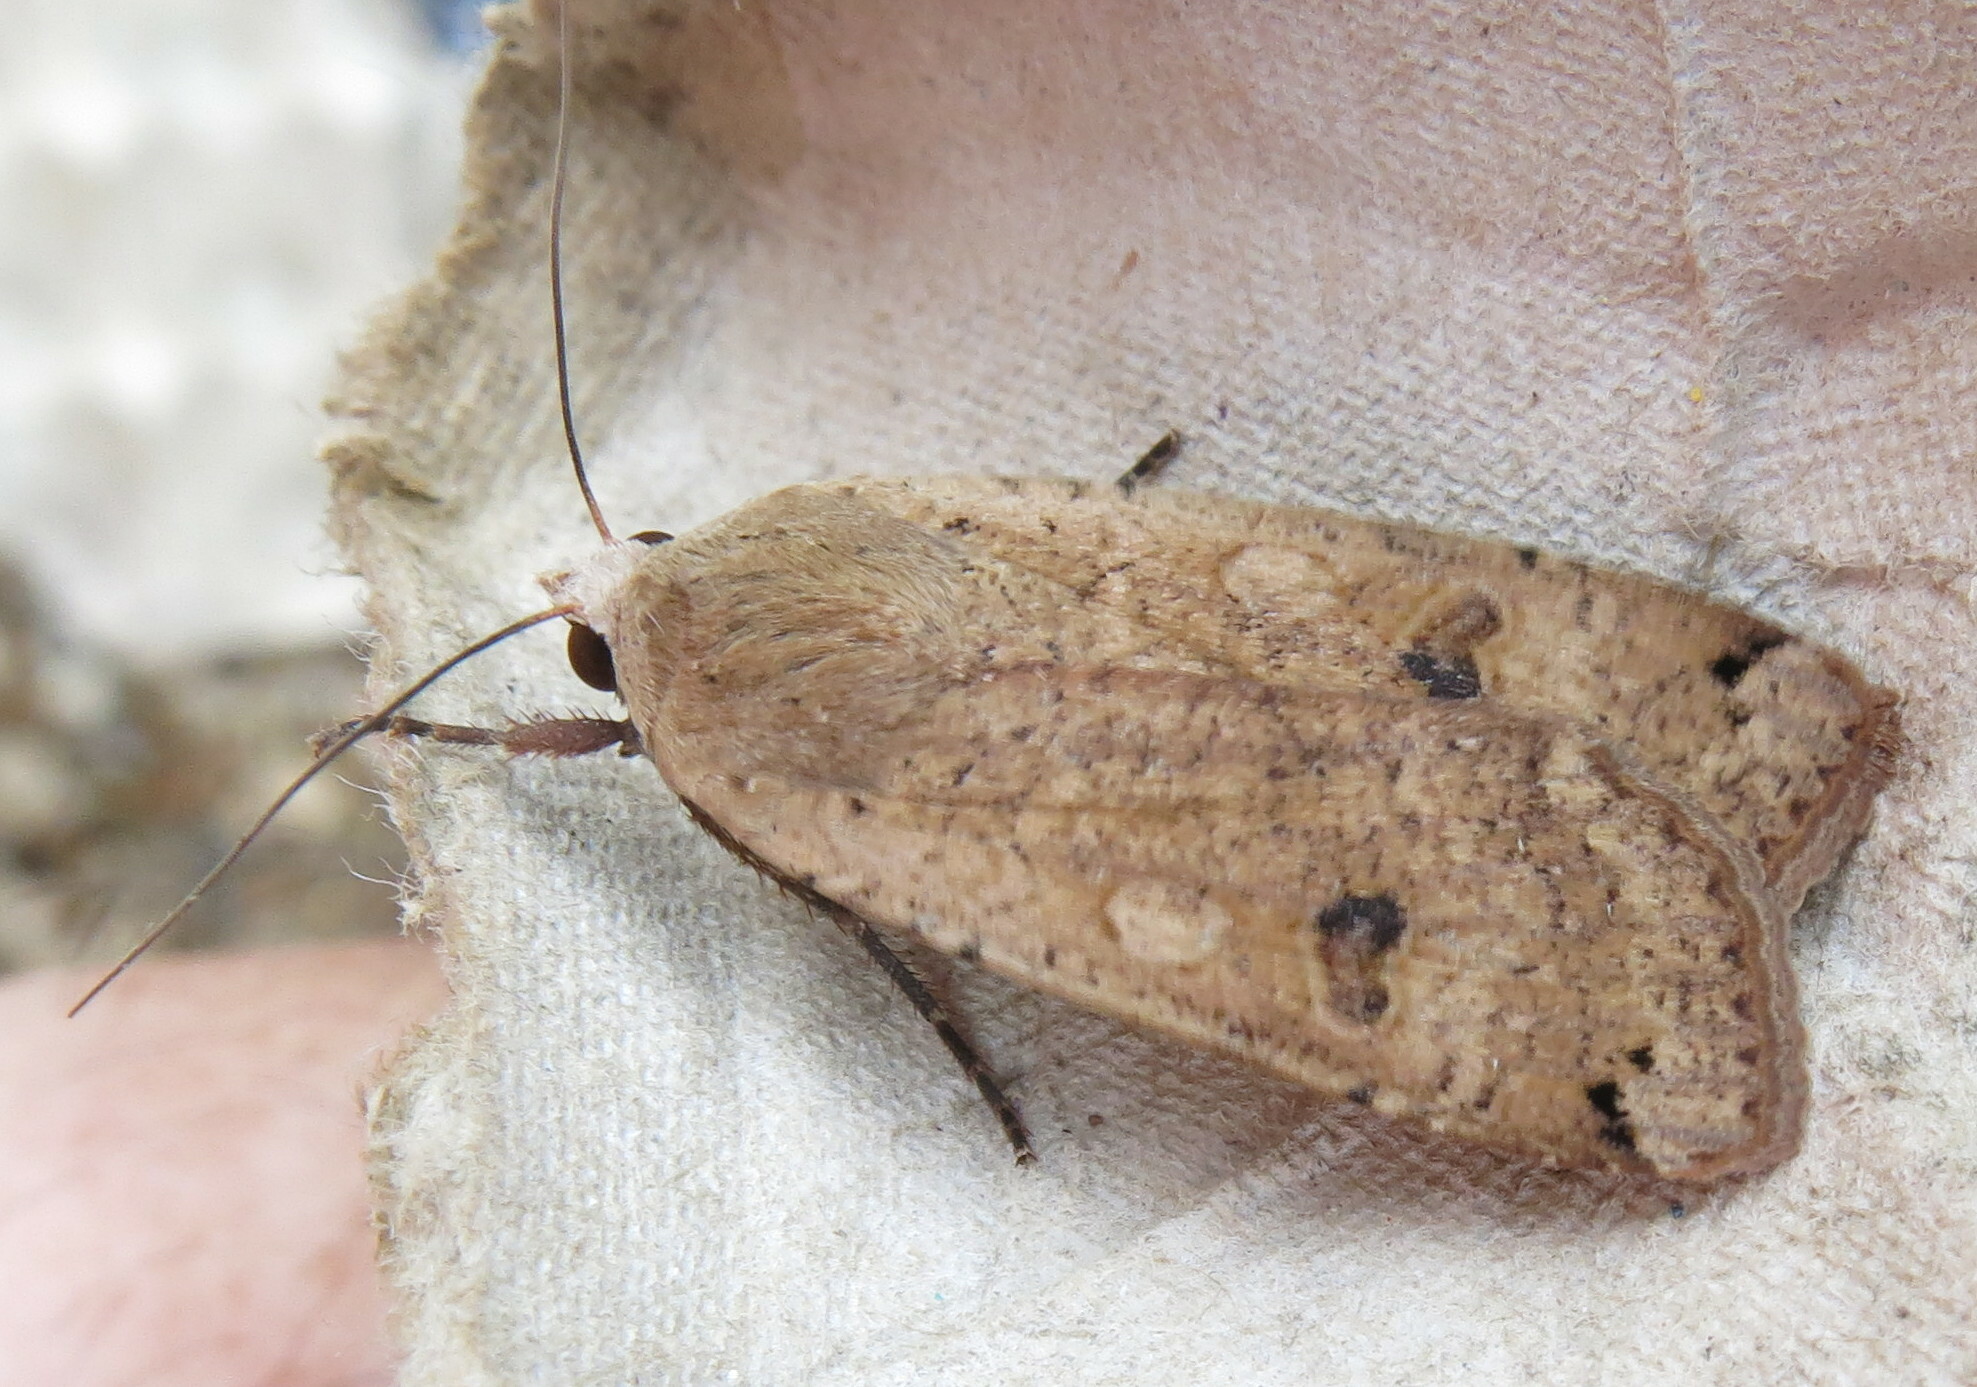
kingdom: Animalia
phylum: Arthropoda
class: Insecta
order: Lepidoptera
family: Noctuidae
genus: Noctua
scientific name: Noctua pronuba
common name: Large yellow underwing
